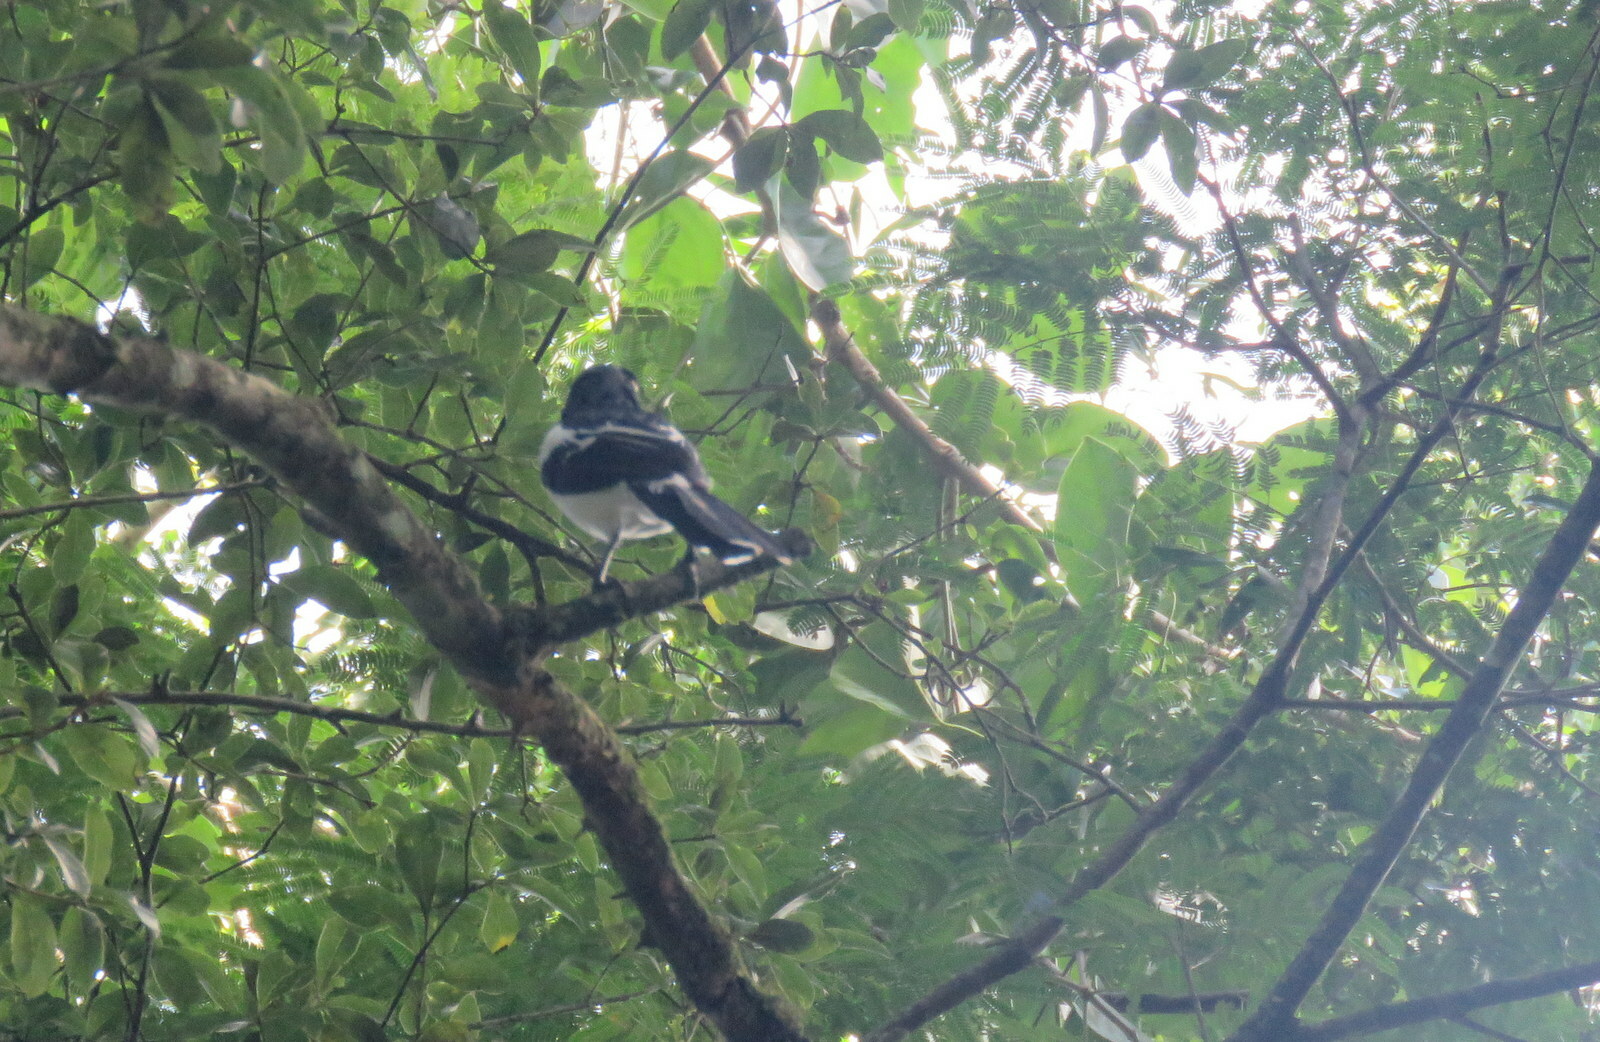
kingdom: Animalia
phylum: Chordata
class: Aves
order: Passeriformes
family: Thraupidae
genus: Cissopis
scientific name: Cissopis leverianus
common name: Magpie tanager
